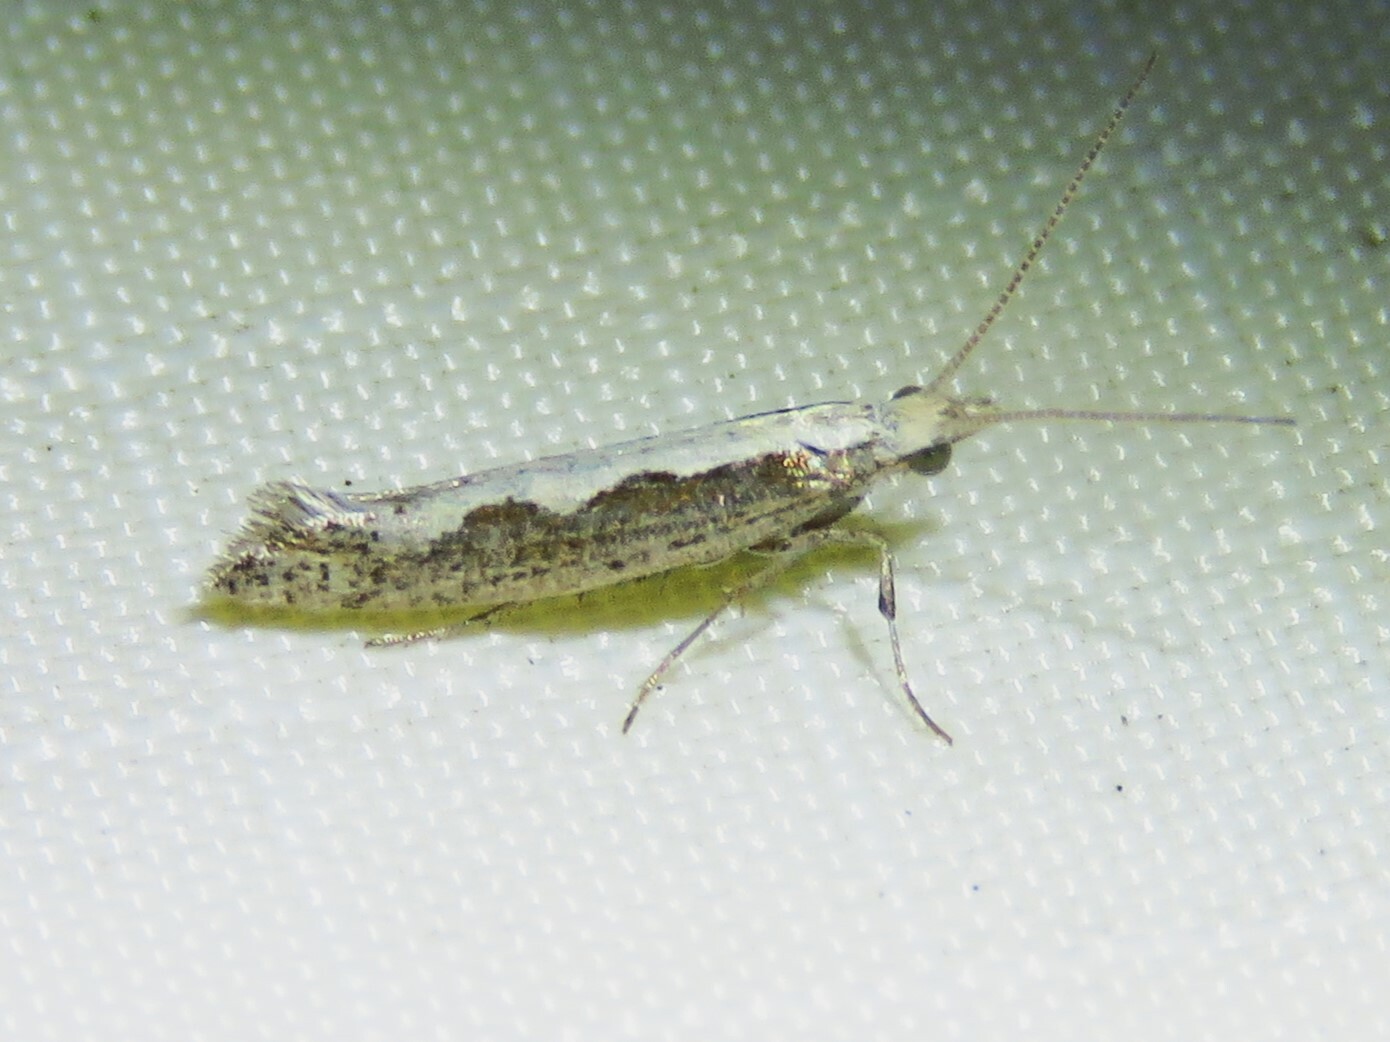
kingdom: Animalia
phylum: Arthropoda
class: Insecta
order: Lepidoptera
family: Plutellidae
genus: Plutella
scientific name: Plutella xylostella
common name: Diamond-back moth
